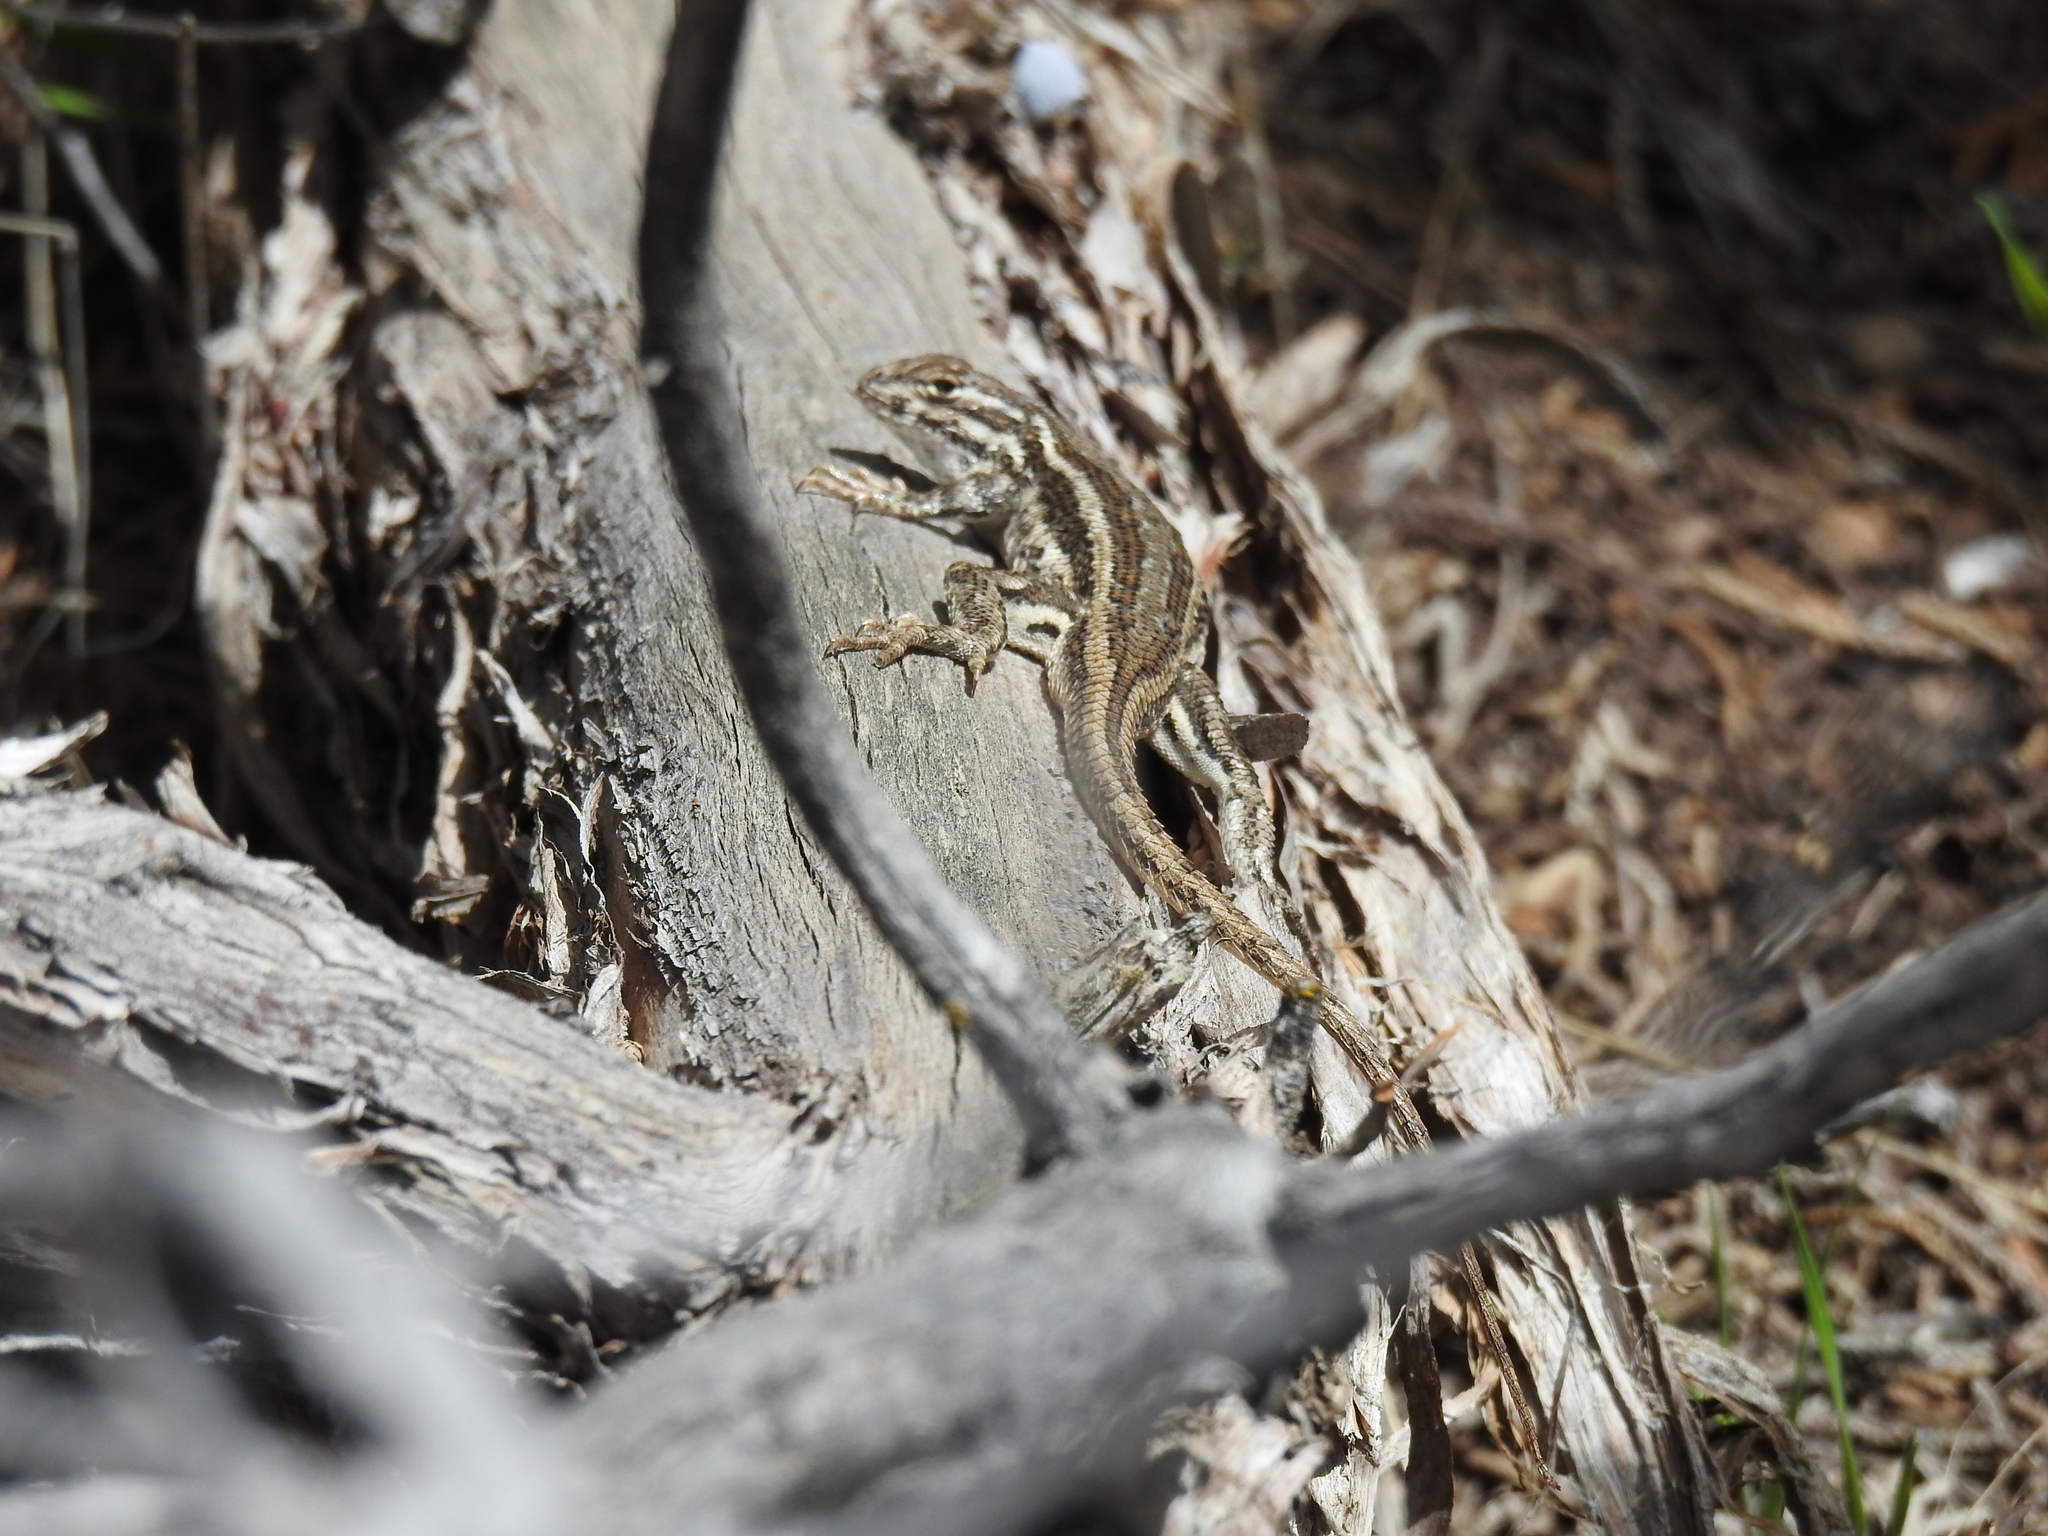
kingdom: Animalia
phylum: Chordata
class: Squamata
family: Phrynosomatidae
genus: Sceloporus
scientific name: Sceloporus graciosus
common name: Sagebrush lizard
